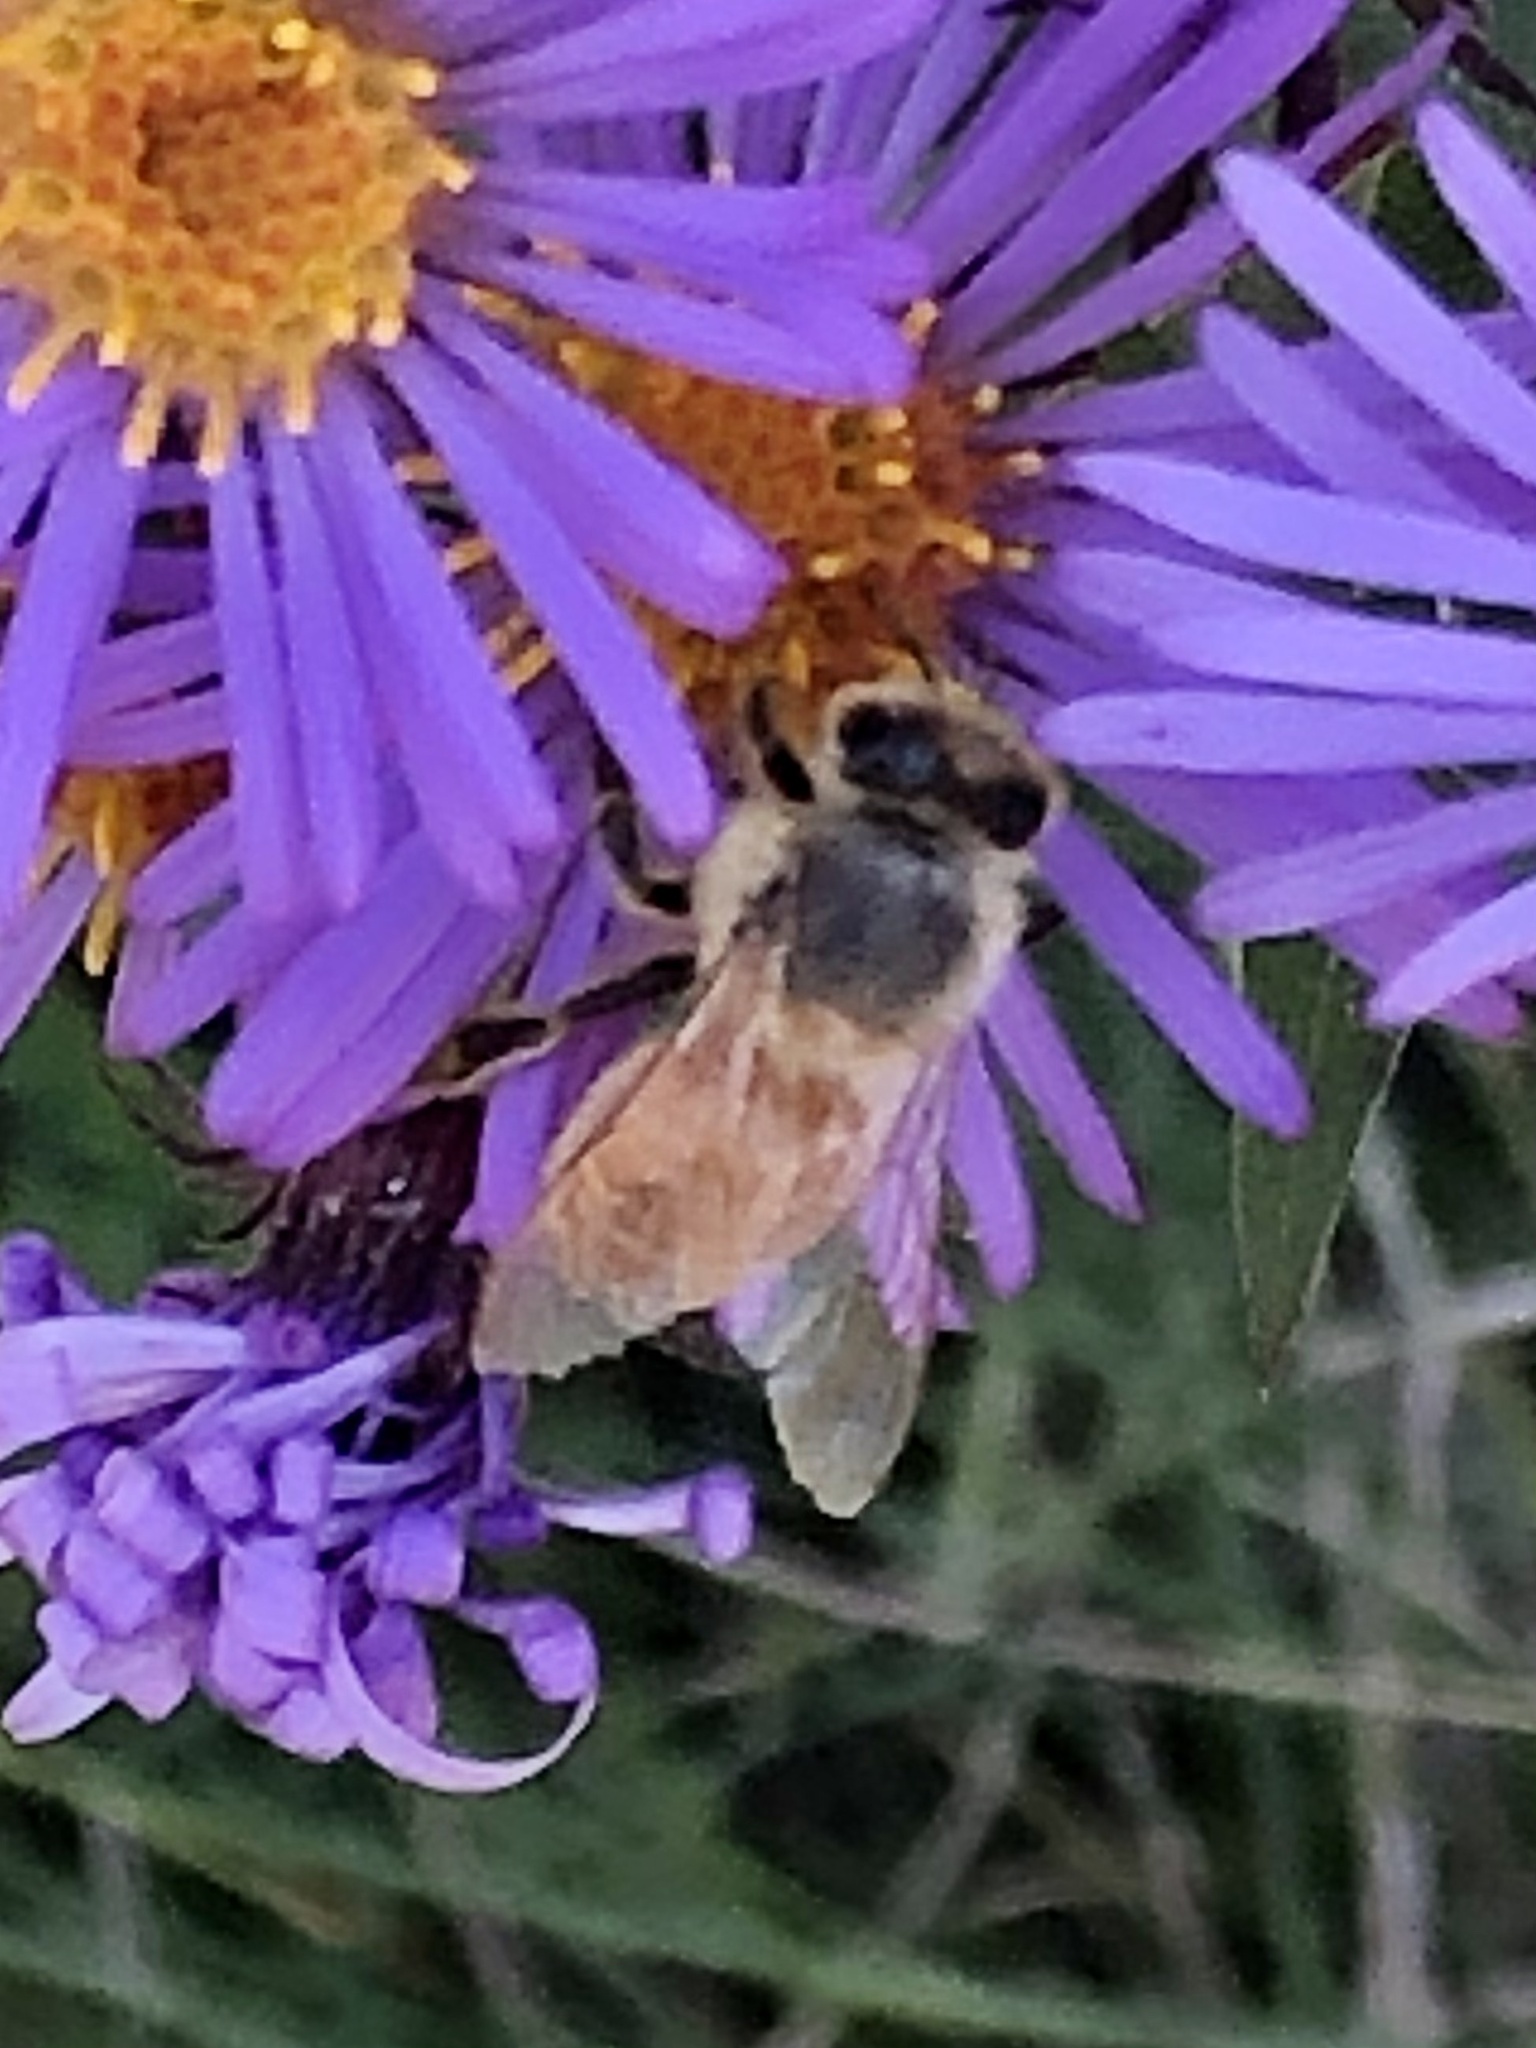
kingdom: Animalia
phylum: Arthropoda
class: Insecta
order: Hymenoptera
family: Apidae
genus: Apis
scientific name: Apis mellifera
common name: Honey bee
